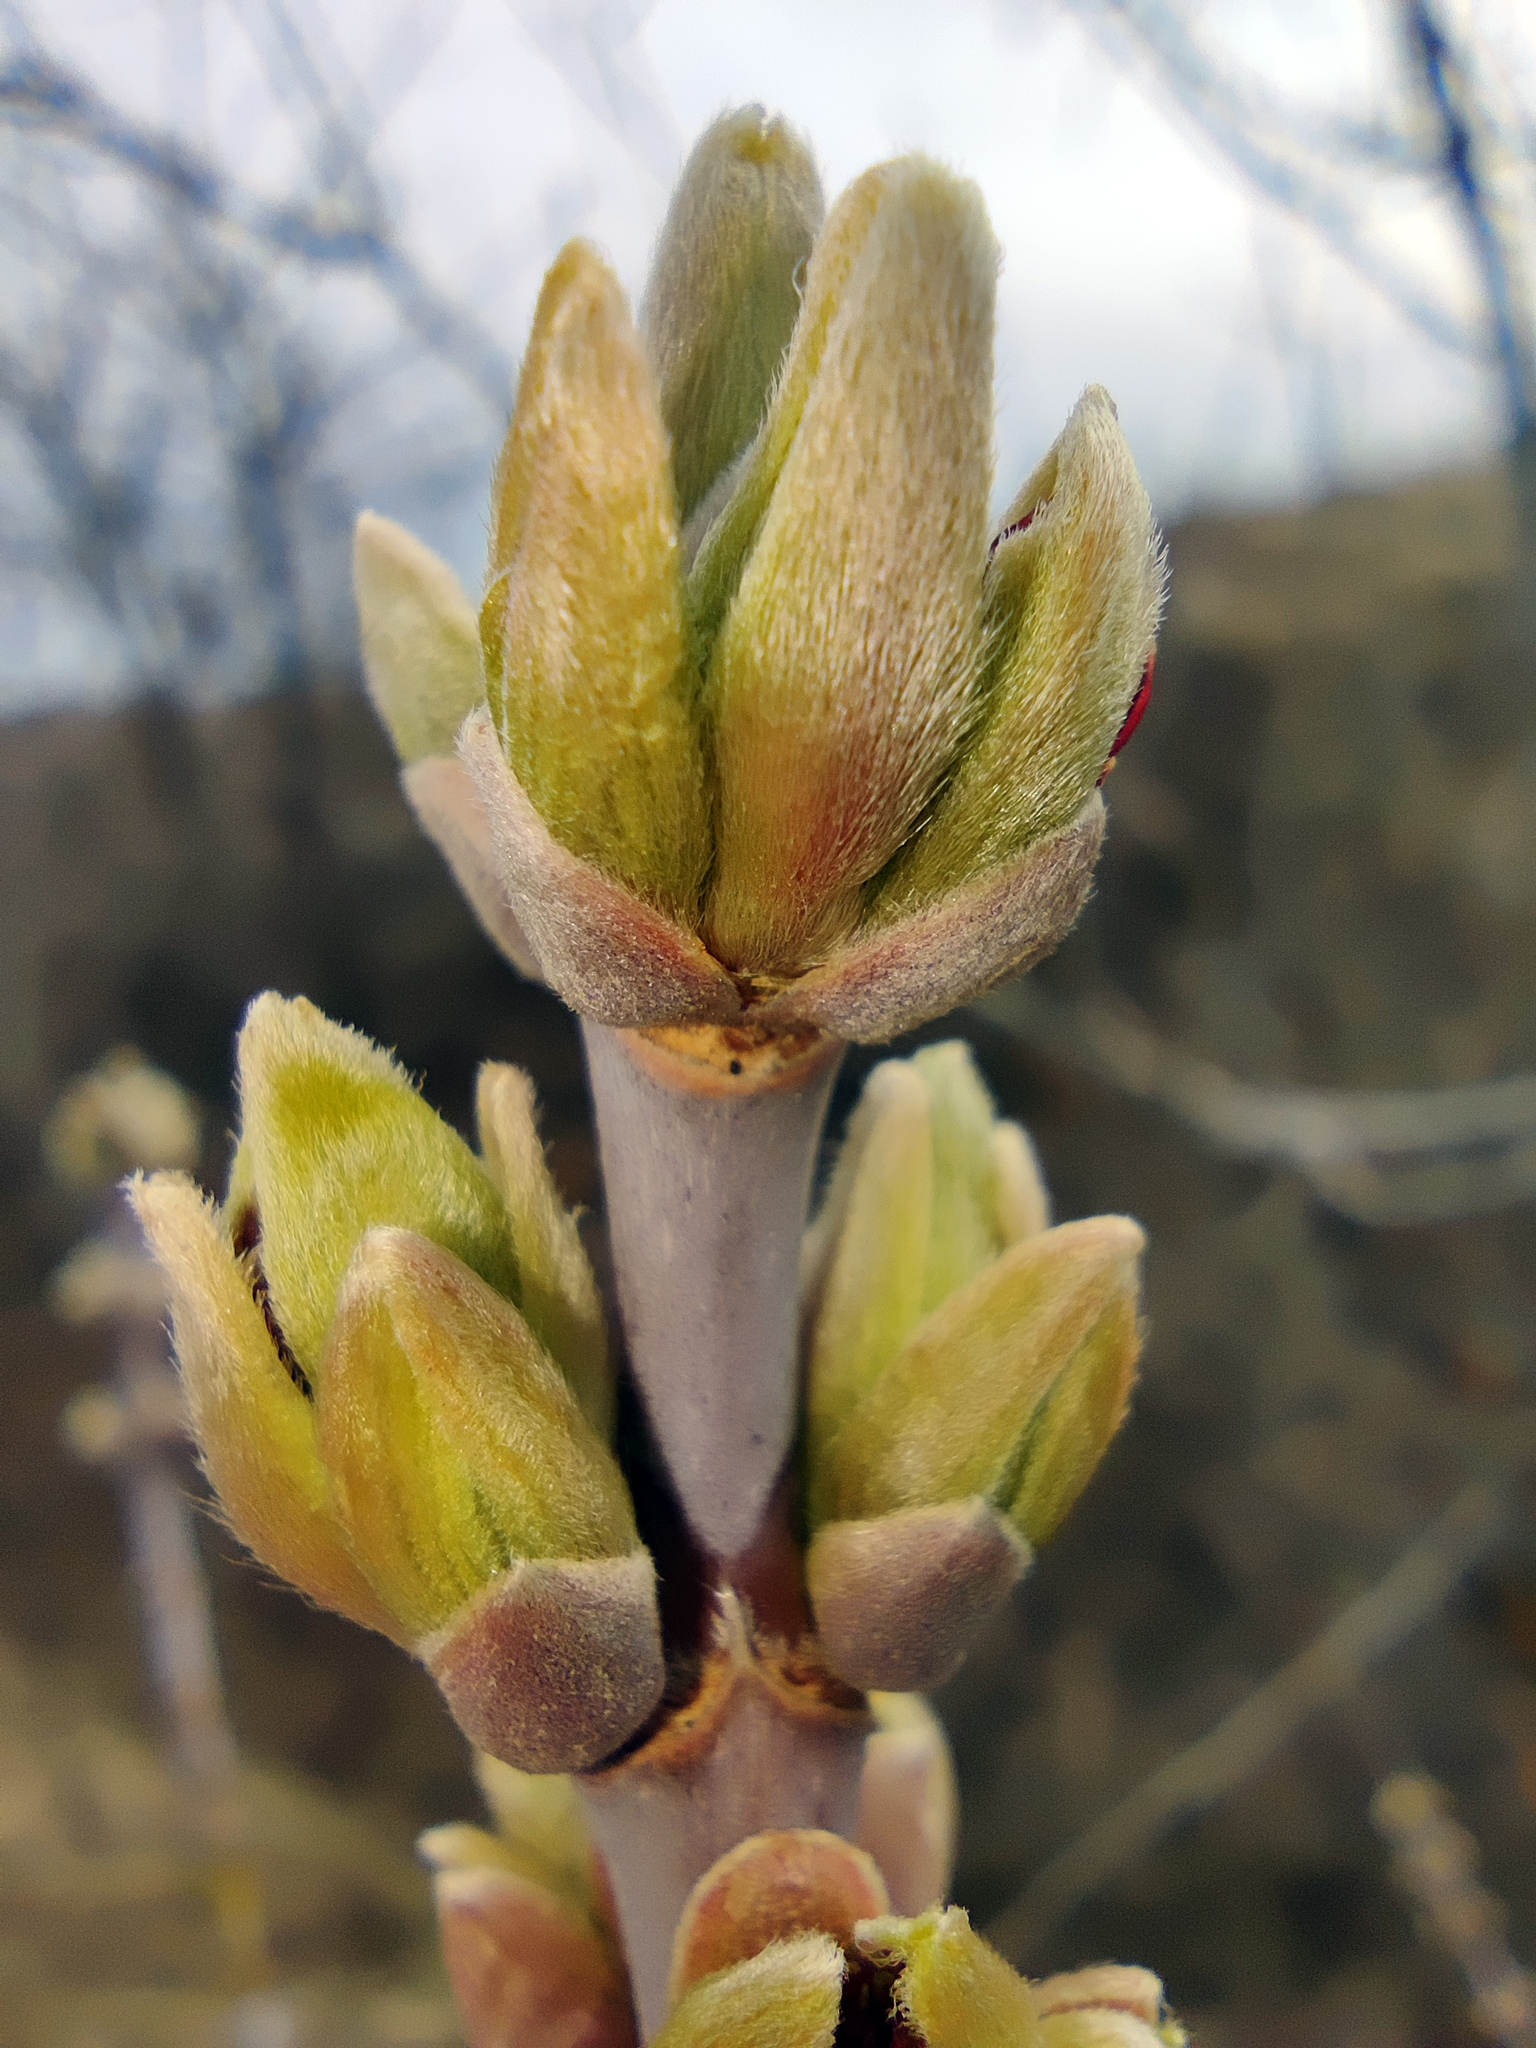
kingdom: Plantae
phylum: Tracheophyta
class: Magnoliopsida
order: Sapindales
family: Sapindaceae
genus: Acer
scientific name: Acer negundo
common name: Ashleaf maple
